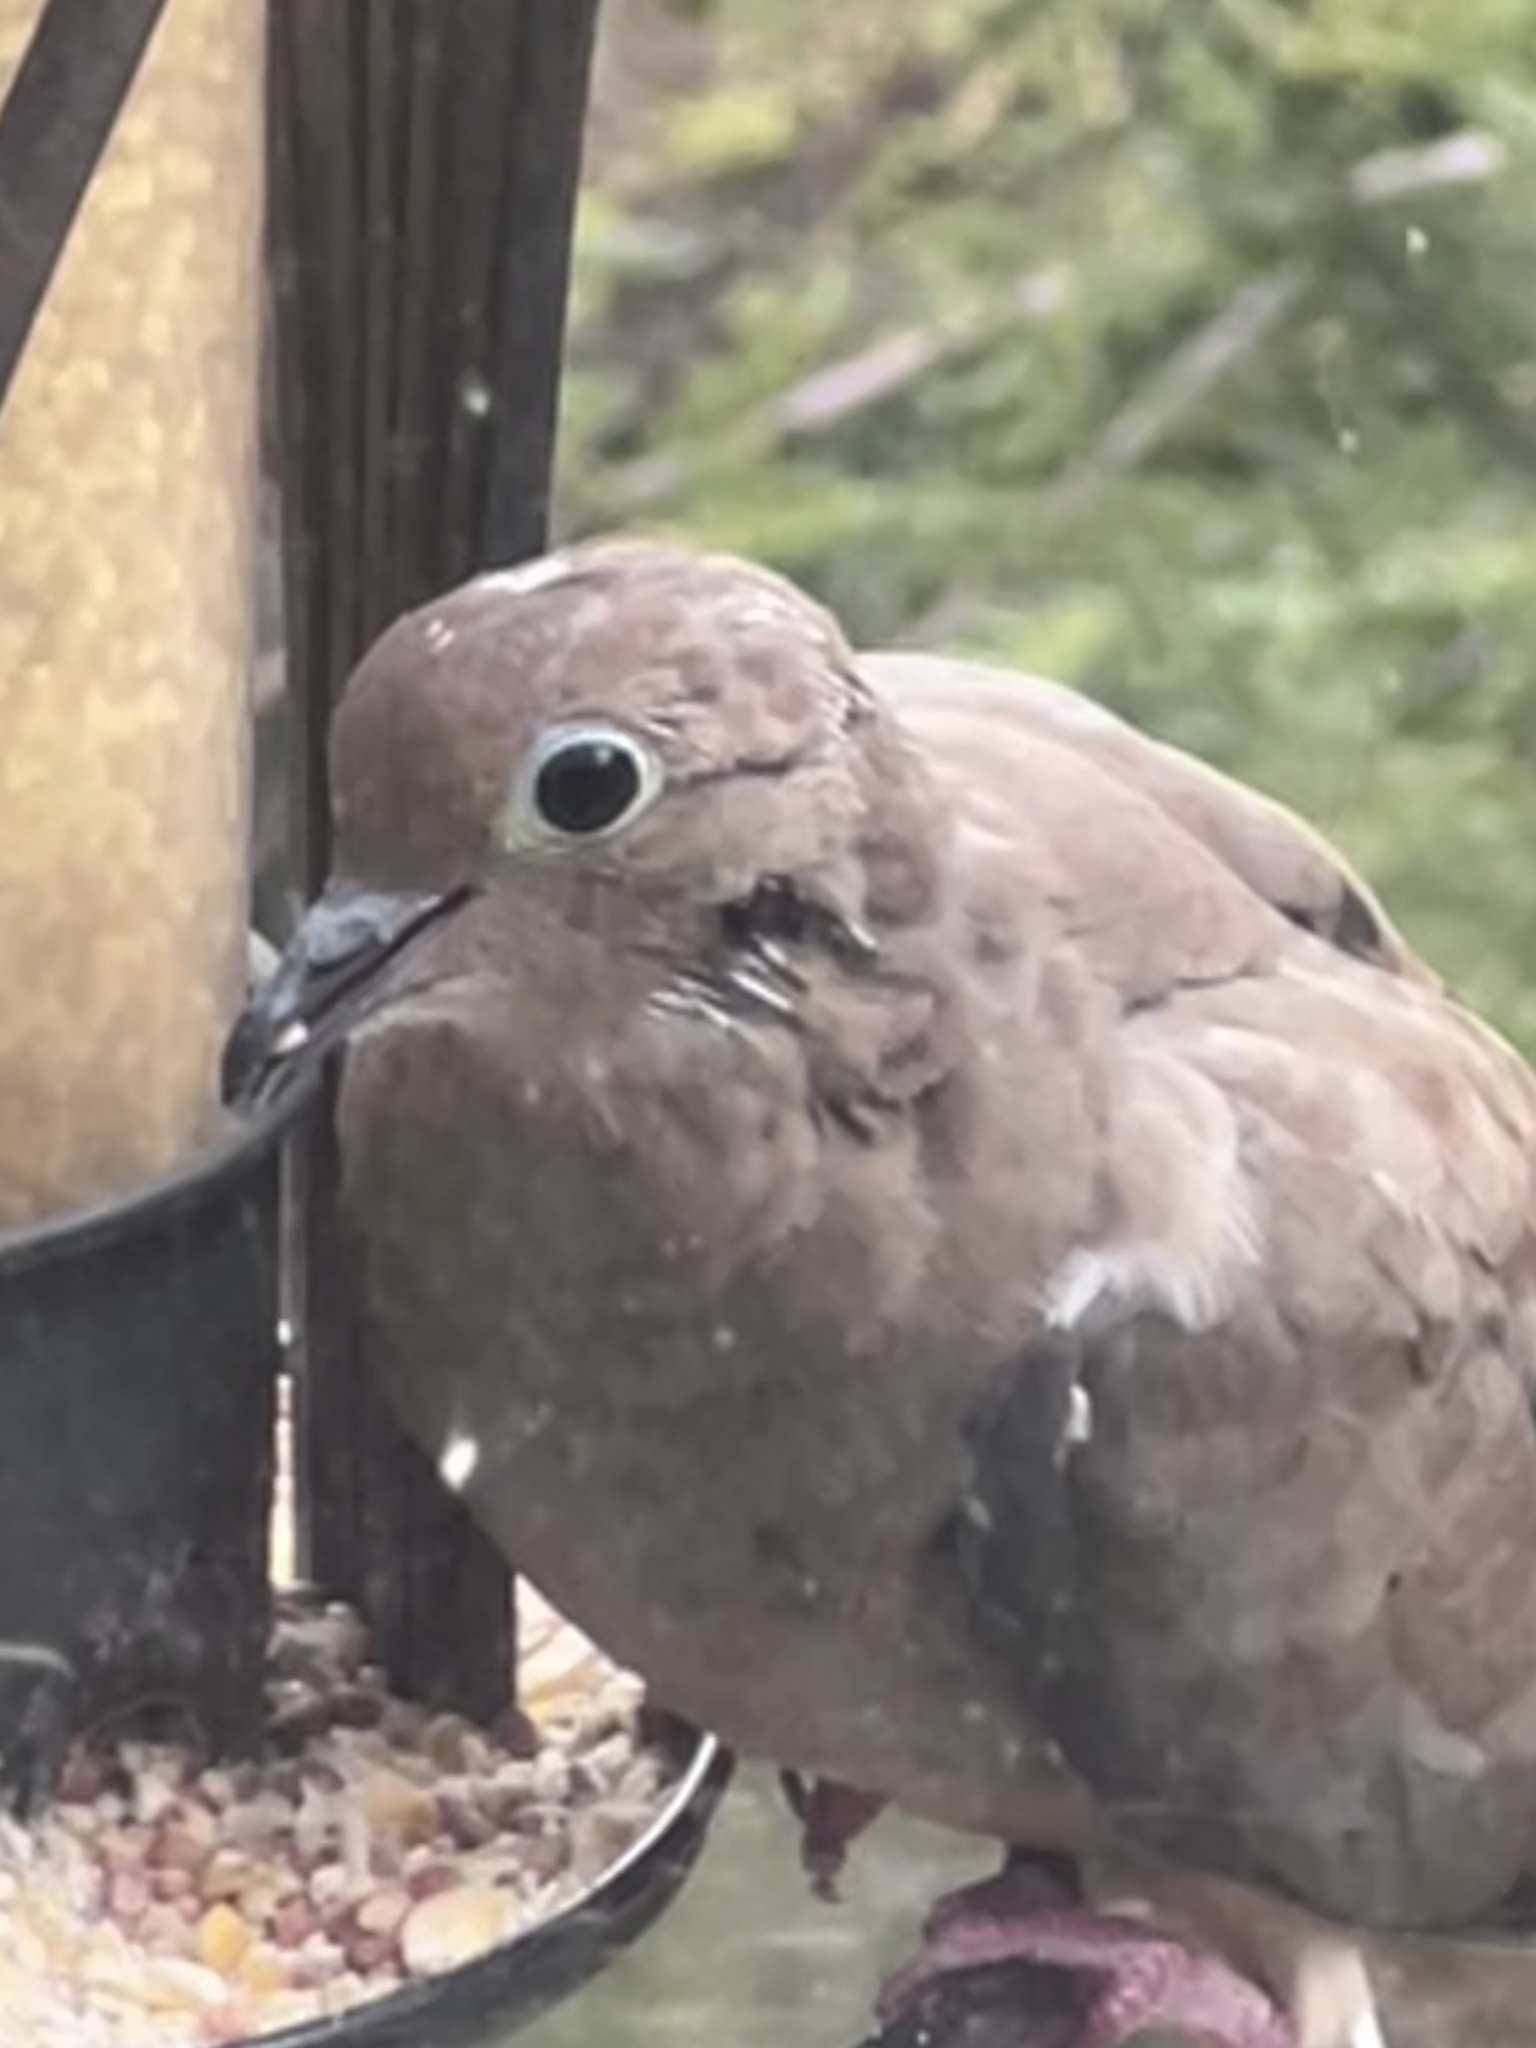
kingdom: Animalia
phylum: Chordata
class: Aves
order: Columbiformes
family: Columbidae
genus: Zenaida
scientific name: Zenaida macroura
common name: Mourning dove
